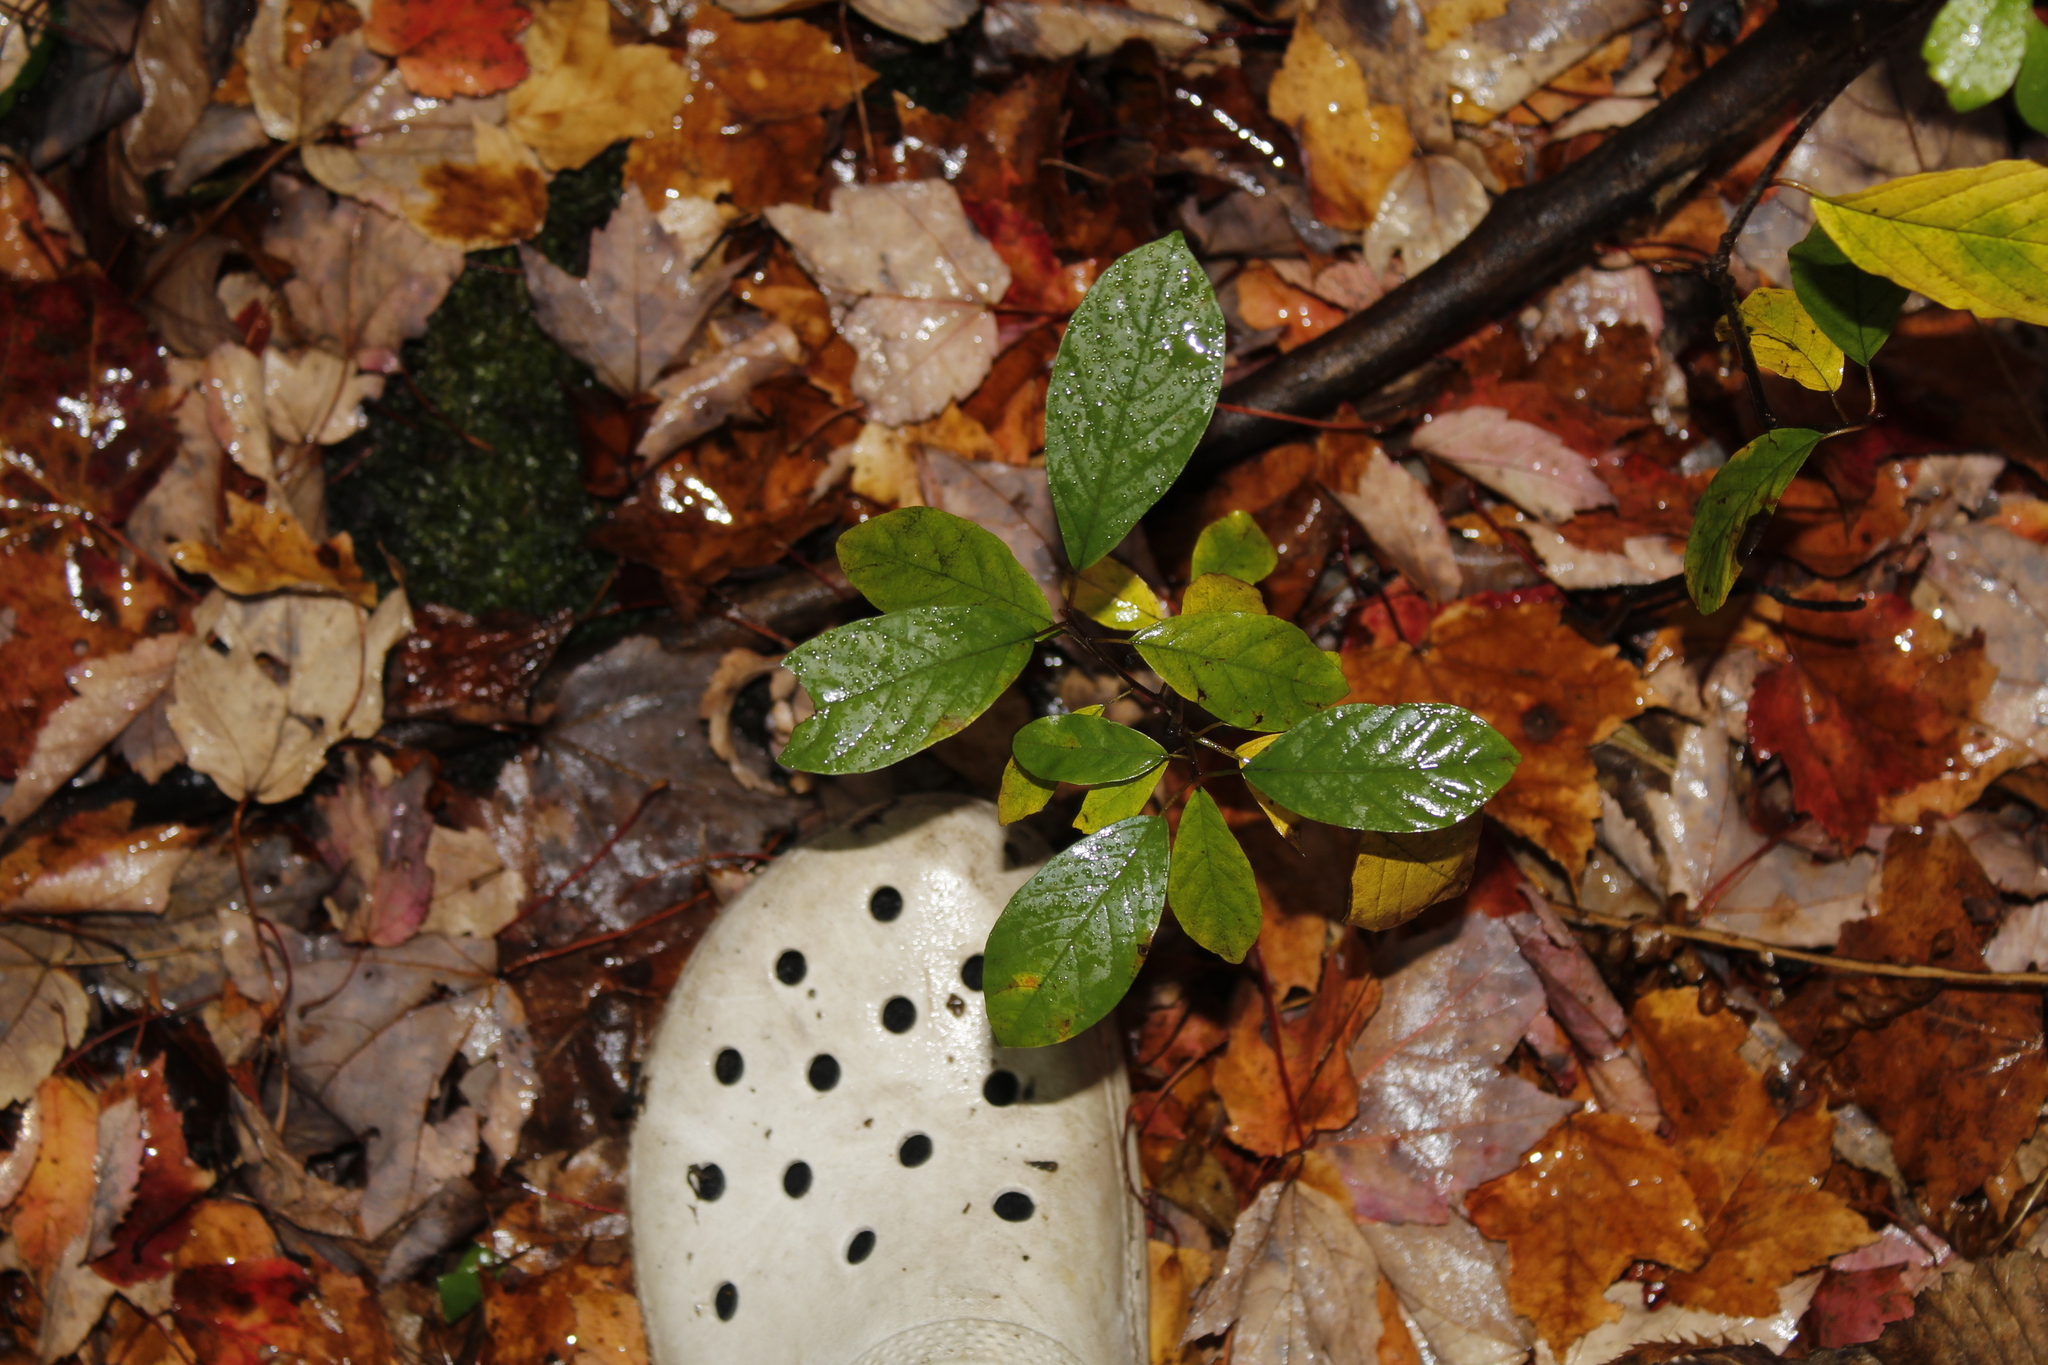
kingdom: Plantae
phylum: Tracheophyta
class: Magnoliopsida
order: Rosales
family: Rhamnaceae
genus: Frangula
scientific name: Frangula alnus
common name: Alder buckthorn
